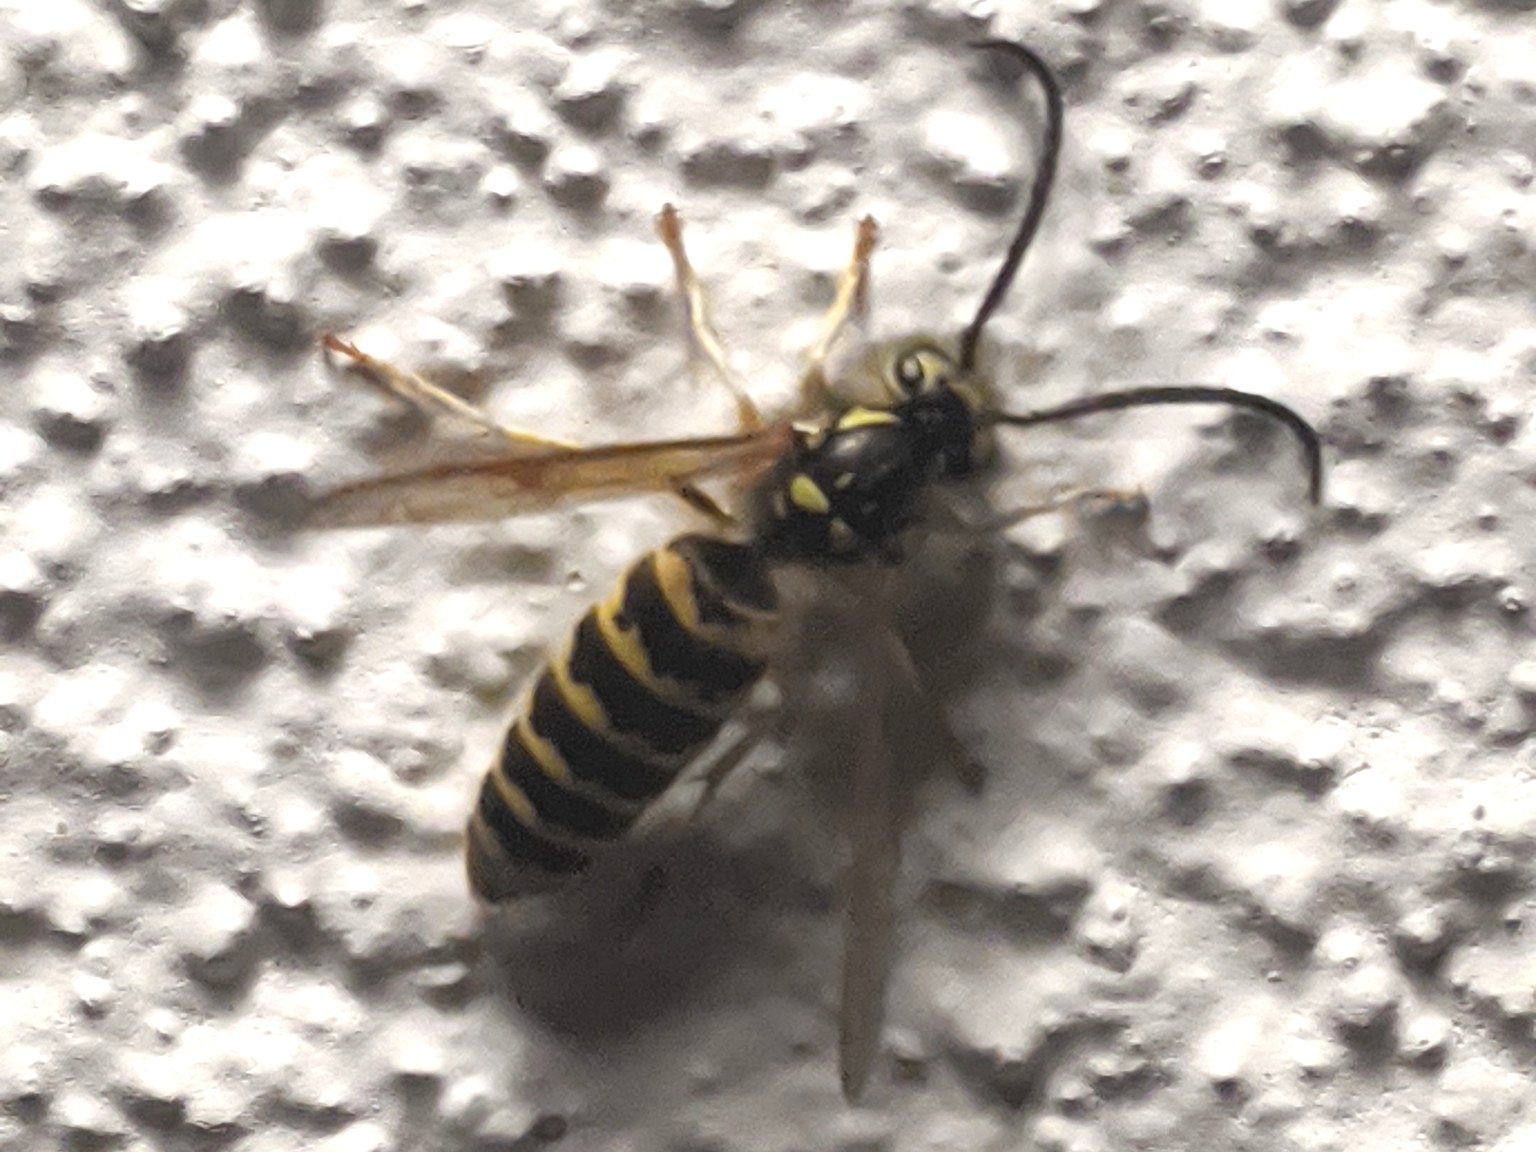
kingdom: Animalia
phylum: Arthropoda
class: Insecta
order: Hymenoptera
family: Vespidae
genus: Vespula
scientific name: Vespula flavopilosa
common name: Downy yellowjacket
